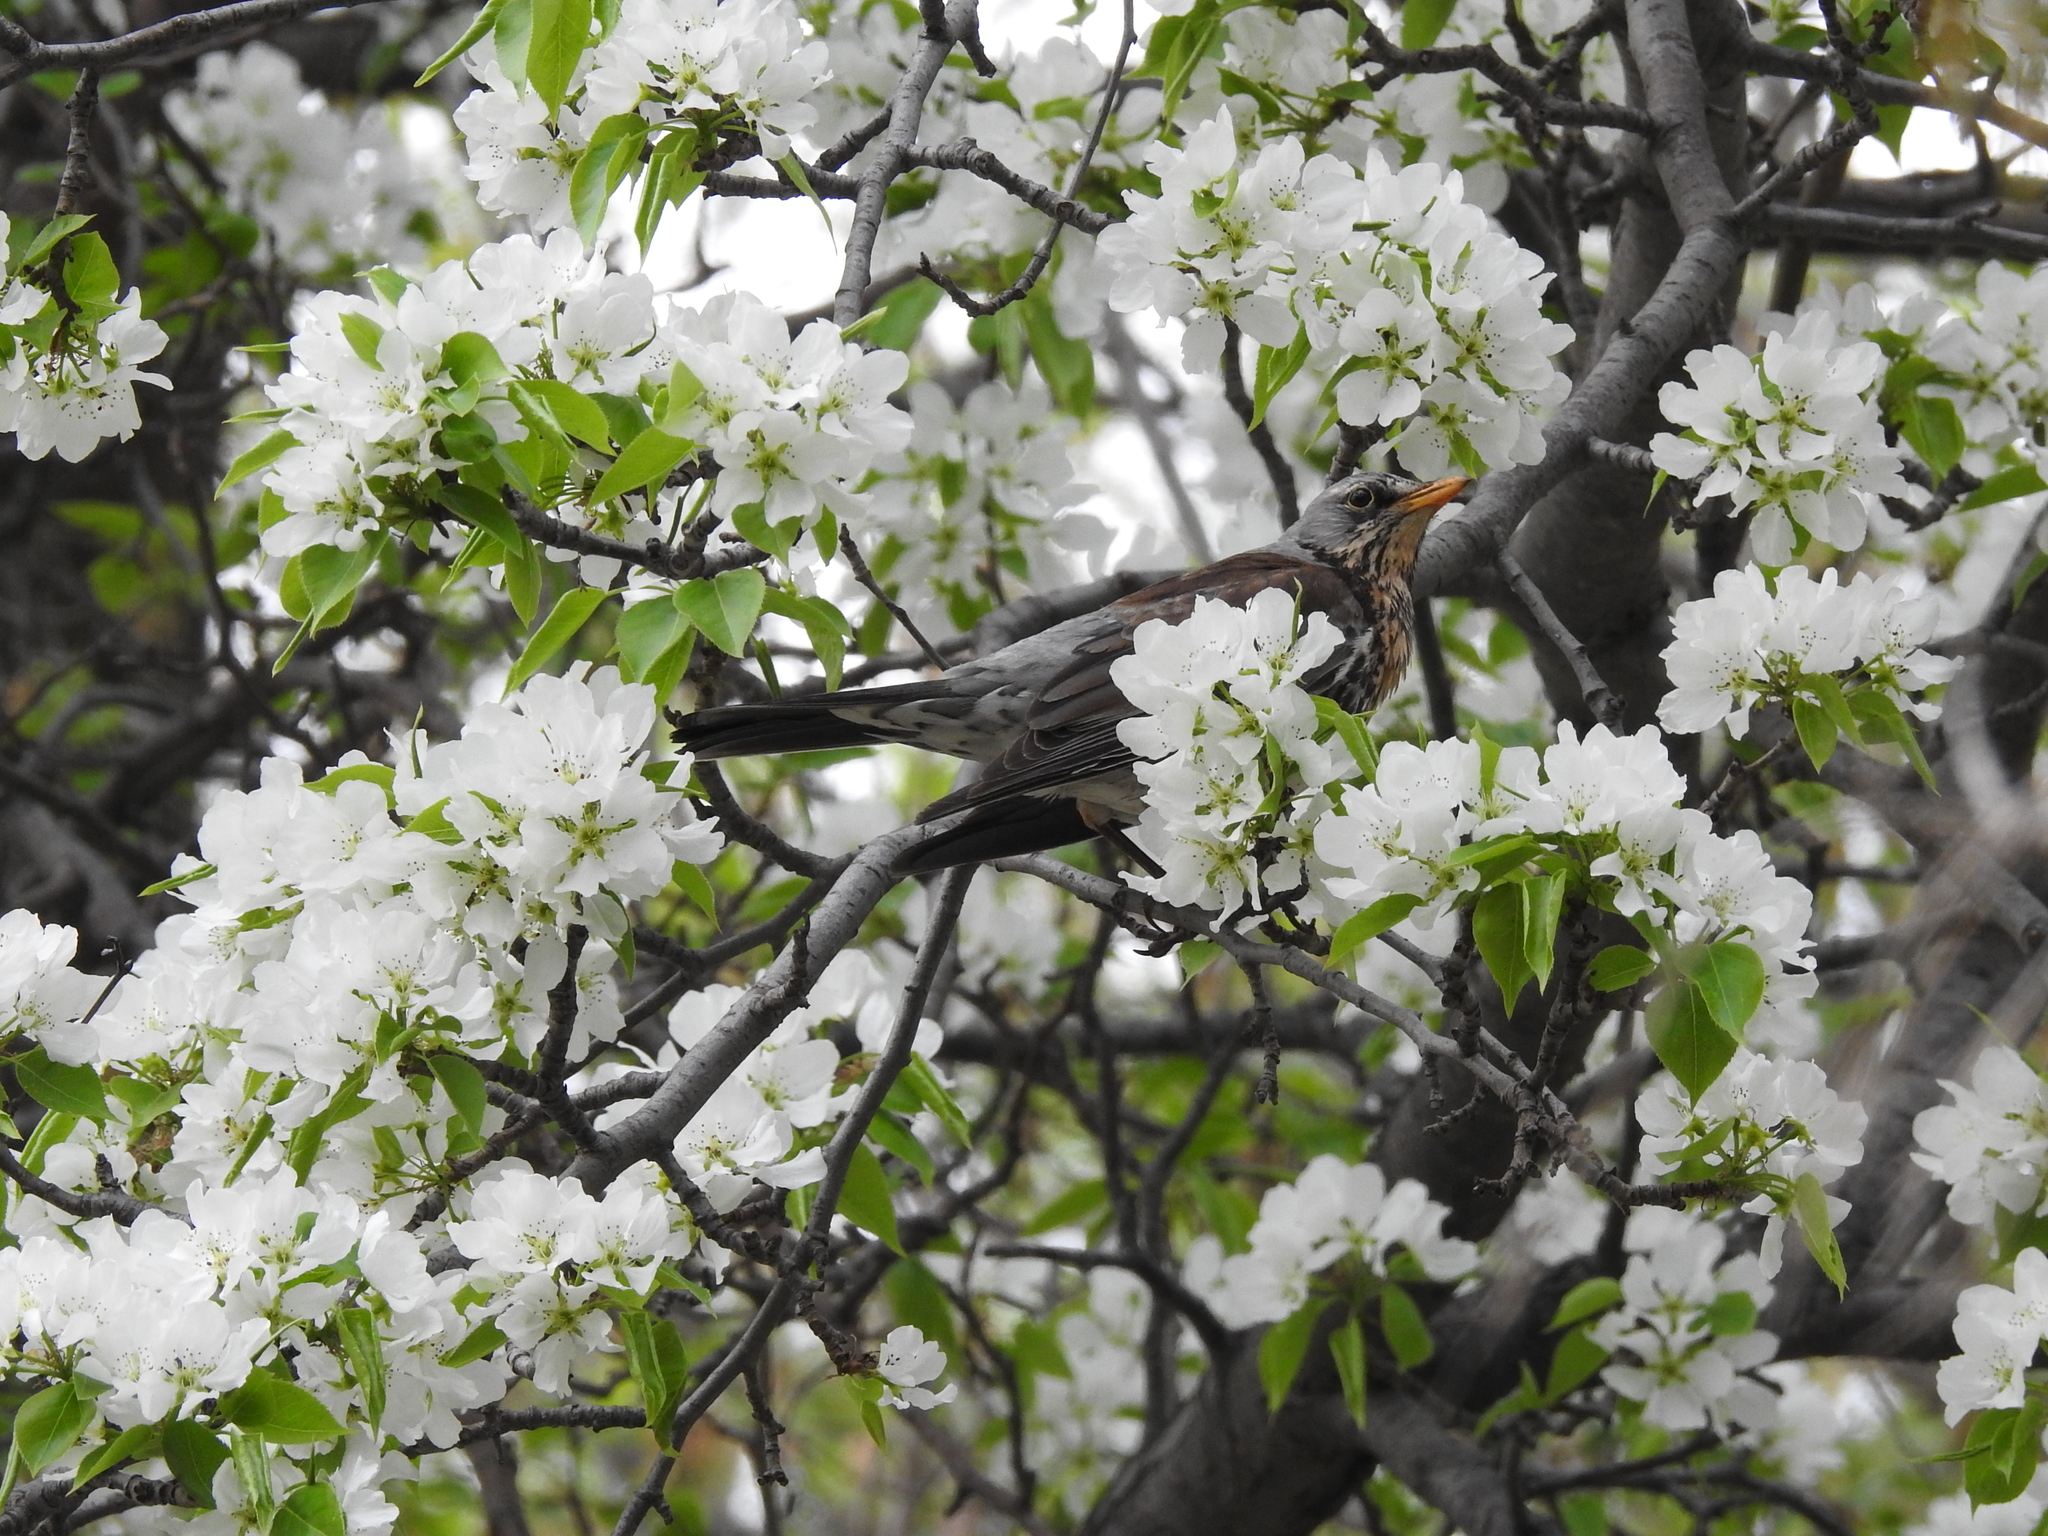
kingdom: Animalia
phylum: Chordata
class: Aves
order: Passeriformes
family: Turdidae
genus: Turdus
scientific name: Turdus pilaris
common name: Fieldfare
